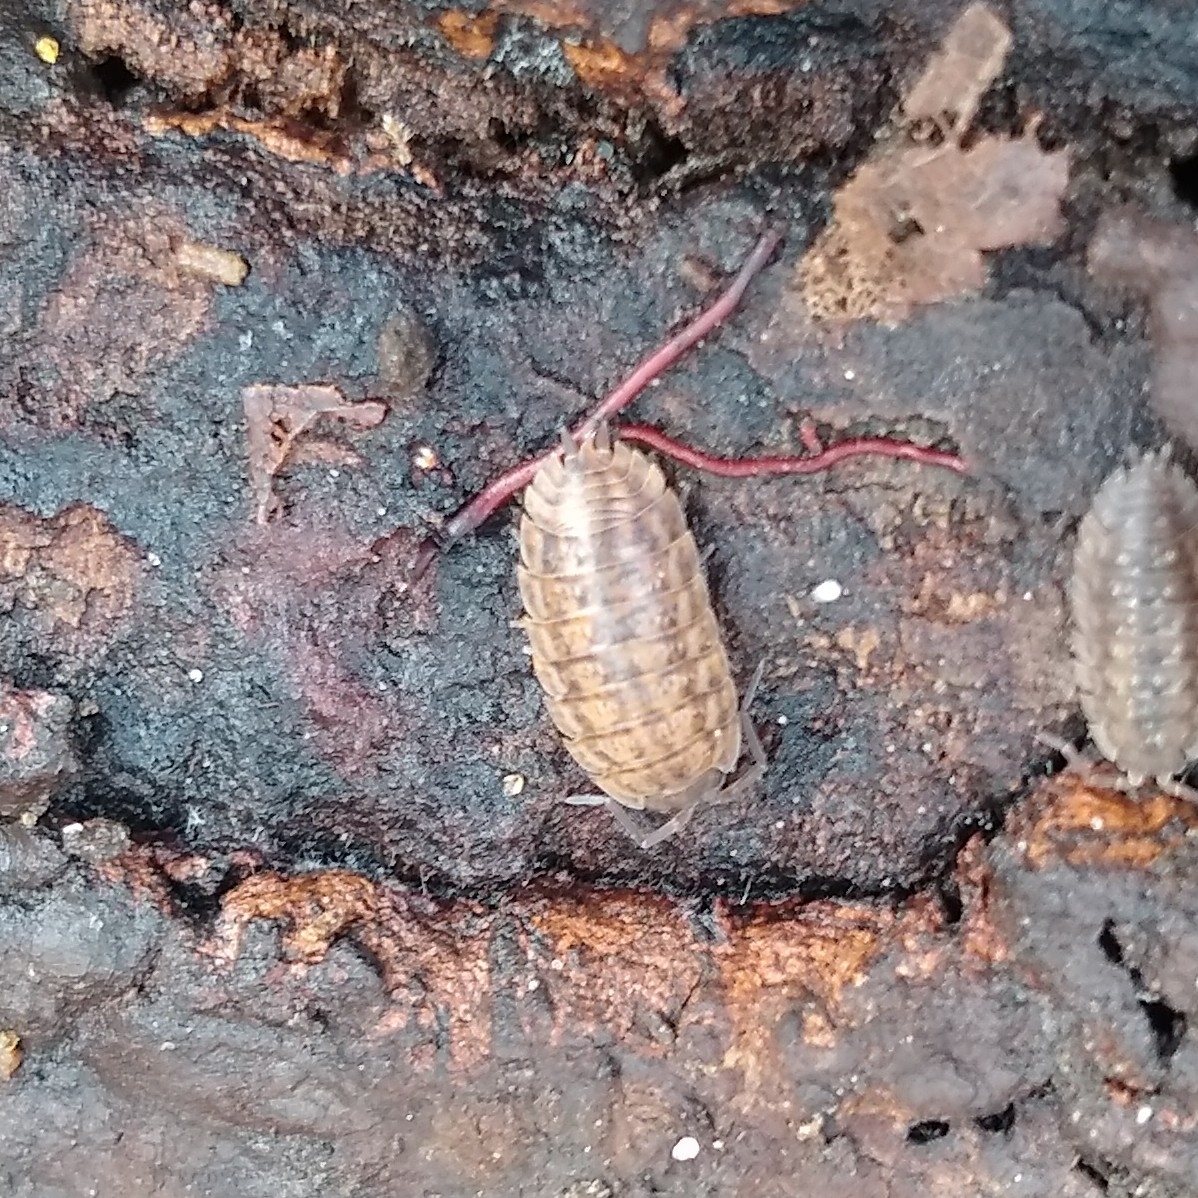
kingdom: Animalia
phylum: Arthropoda
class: Malacostraca
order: Isopoda
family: Trachelipodidae
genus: Trachelipus
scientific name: Trachelipus rathkii
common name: Isopod
